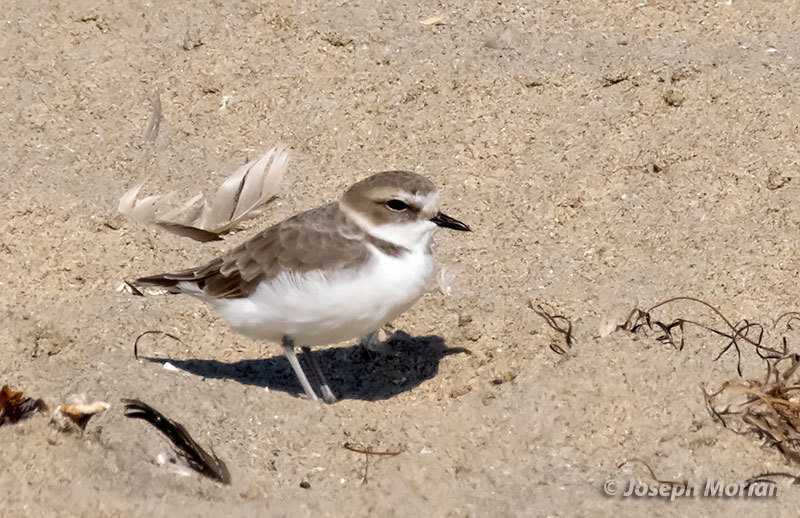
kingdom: Animalia
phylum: Chordata
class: Aves
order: Charadriiformes
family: Charadriidae
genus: Anarhynchus
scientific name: Anarhynchus
